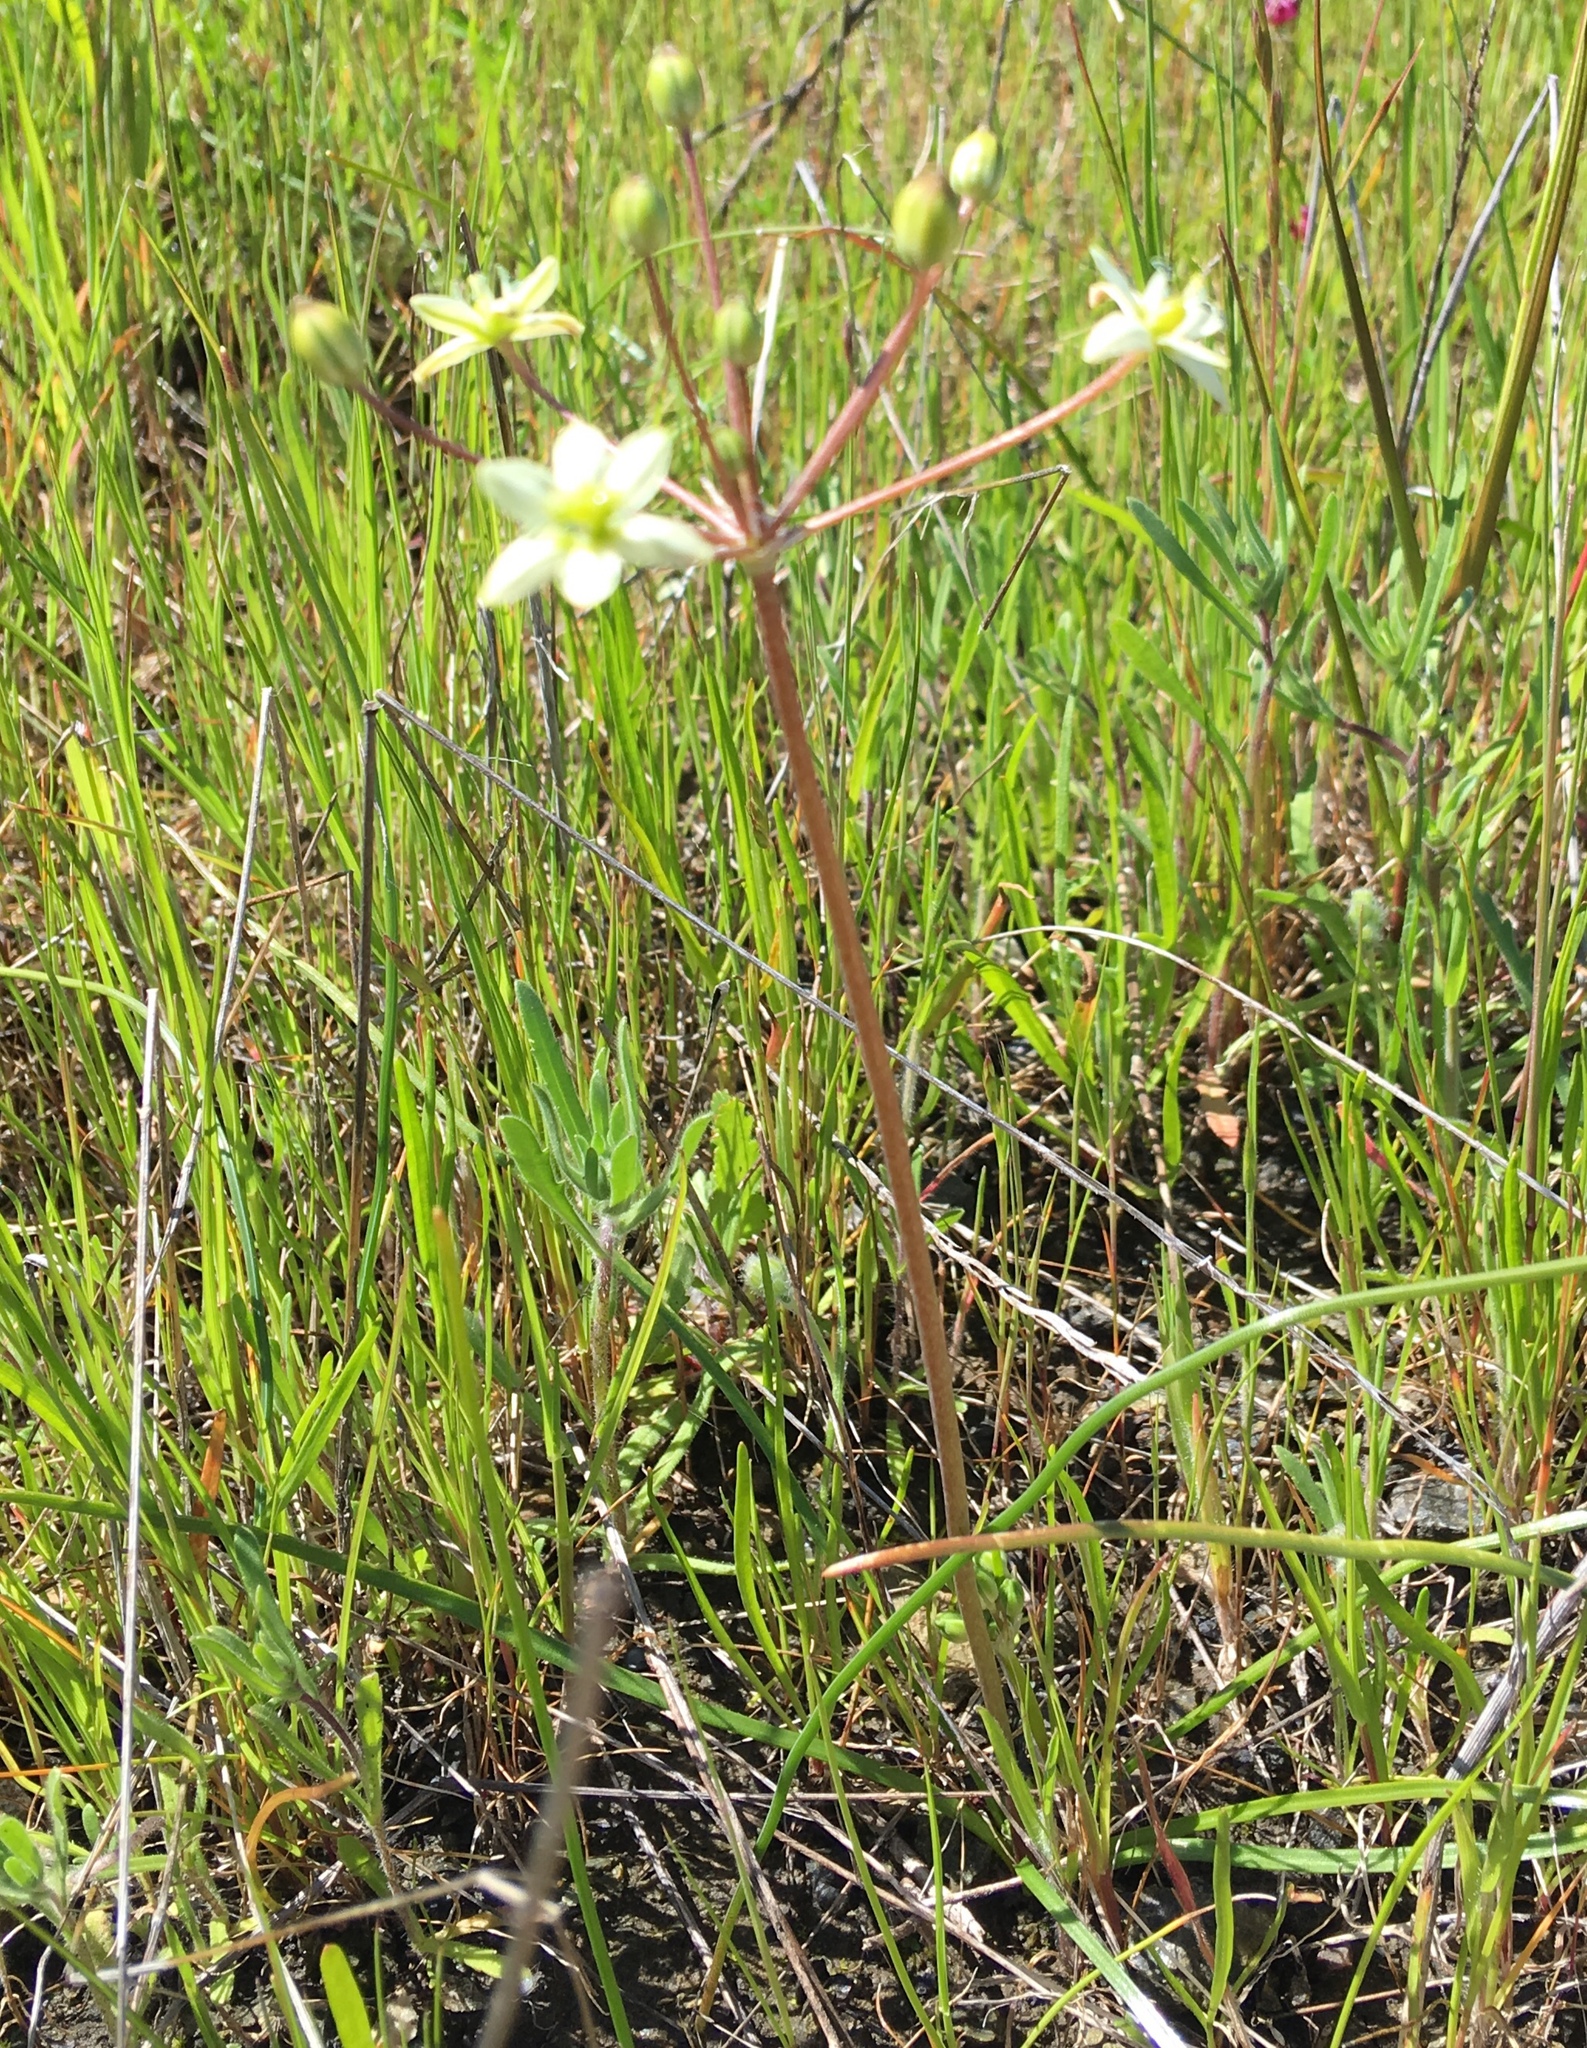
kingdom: Plantae
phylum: Tracheophyta
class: Liliopsida
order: Asparagales
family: Asparagaceae
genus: Muilla
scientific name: Muilla maritima
